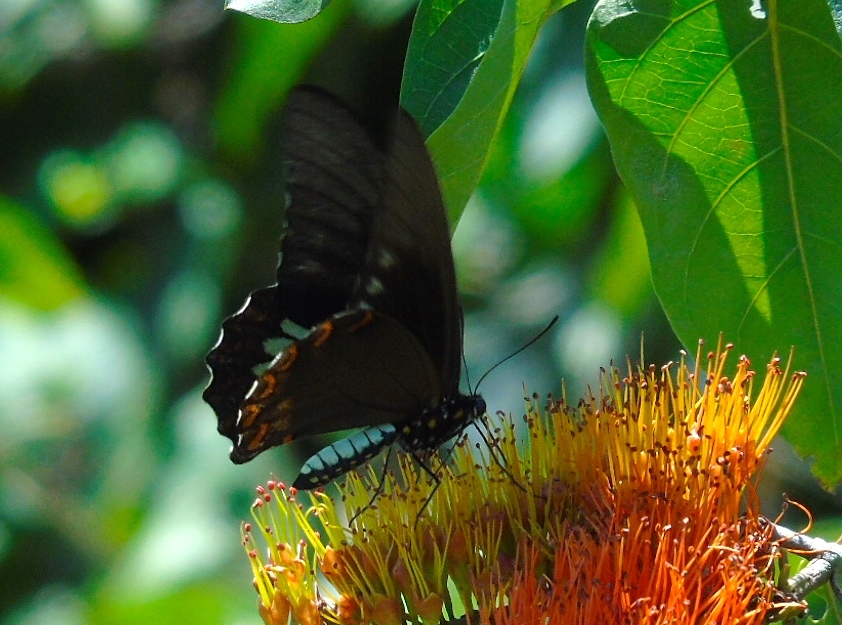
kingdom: Animalia
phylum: Arthropoda
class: Insecta
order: Lepidoptera
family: Papilionidae
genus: Battus
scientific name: Battus laodamas
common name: Green-patch swallowtail
